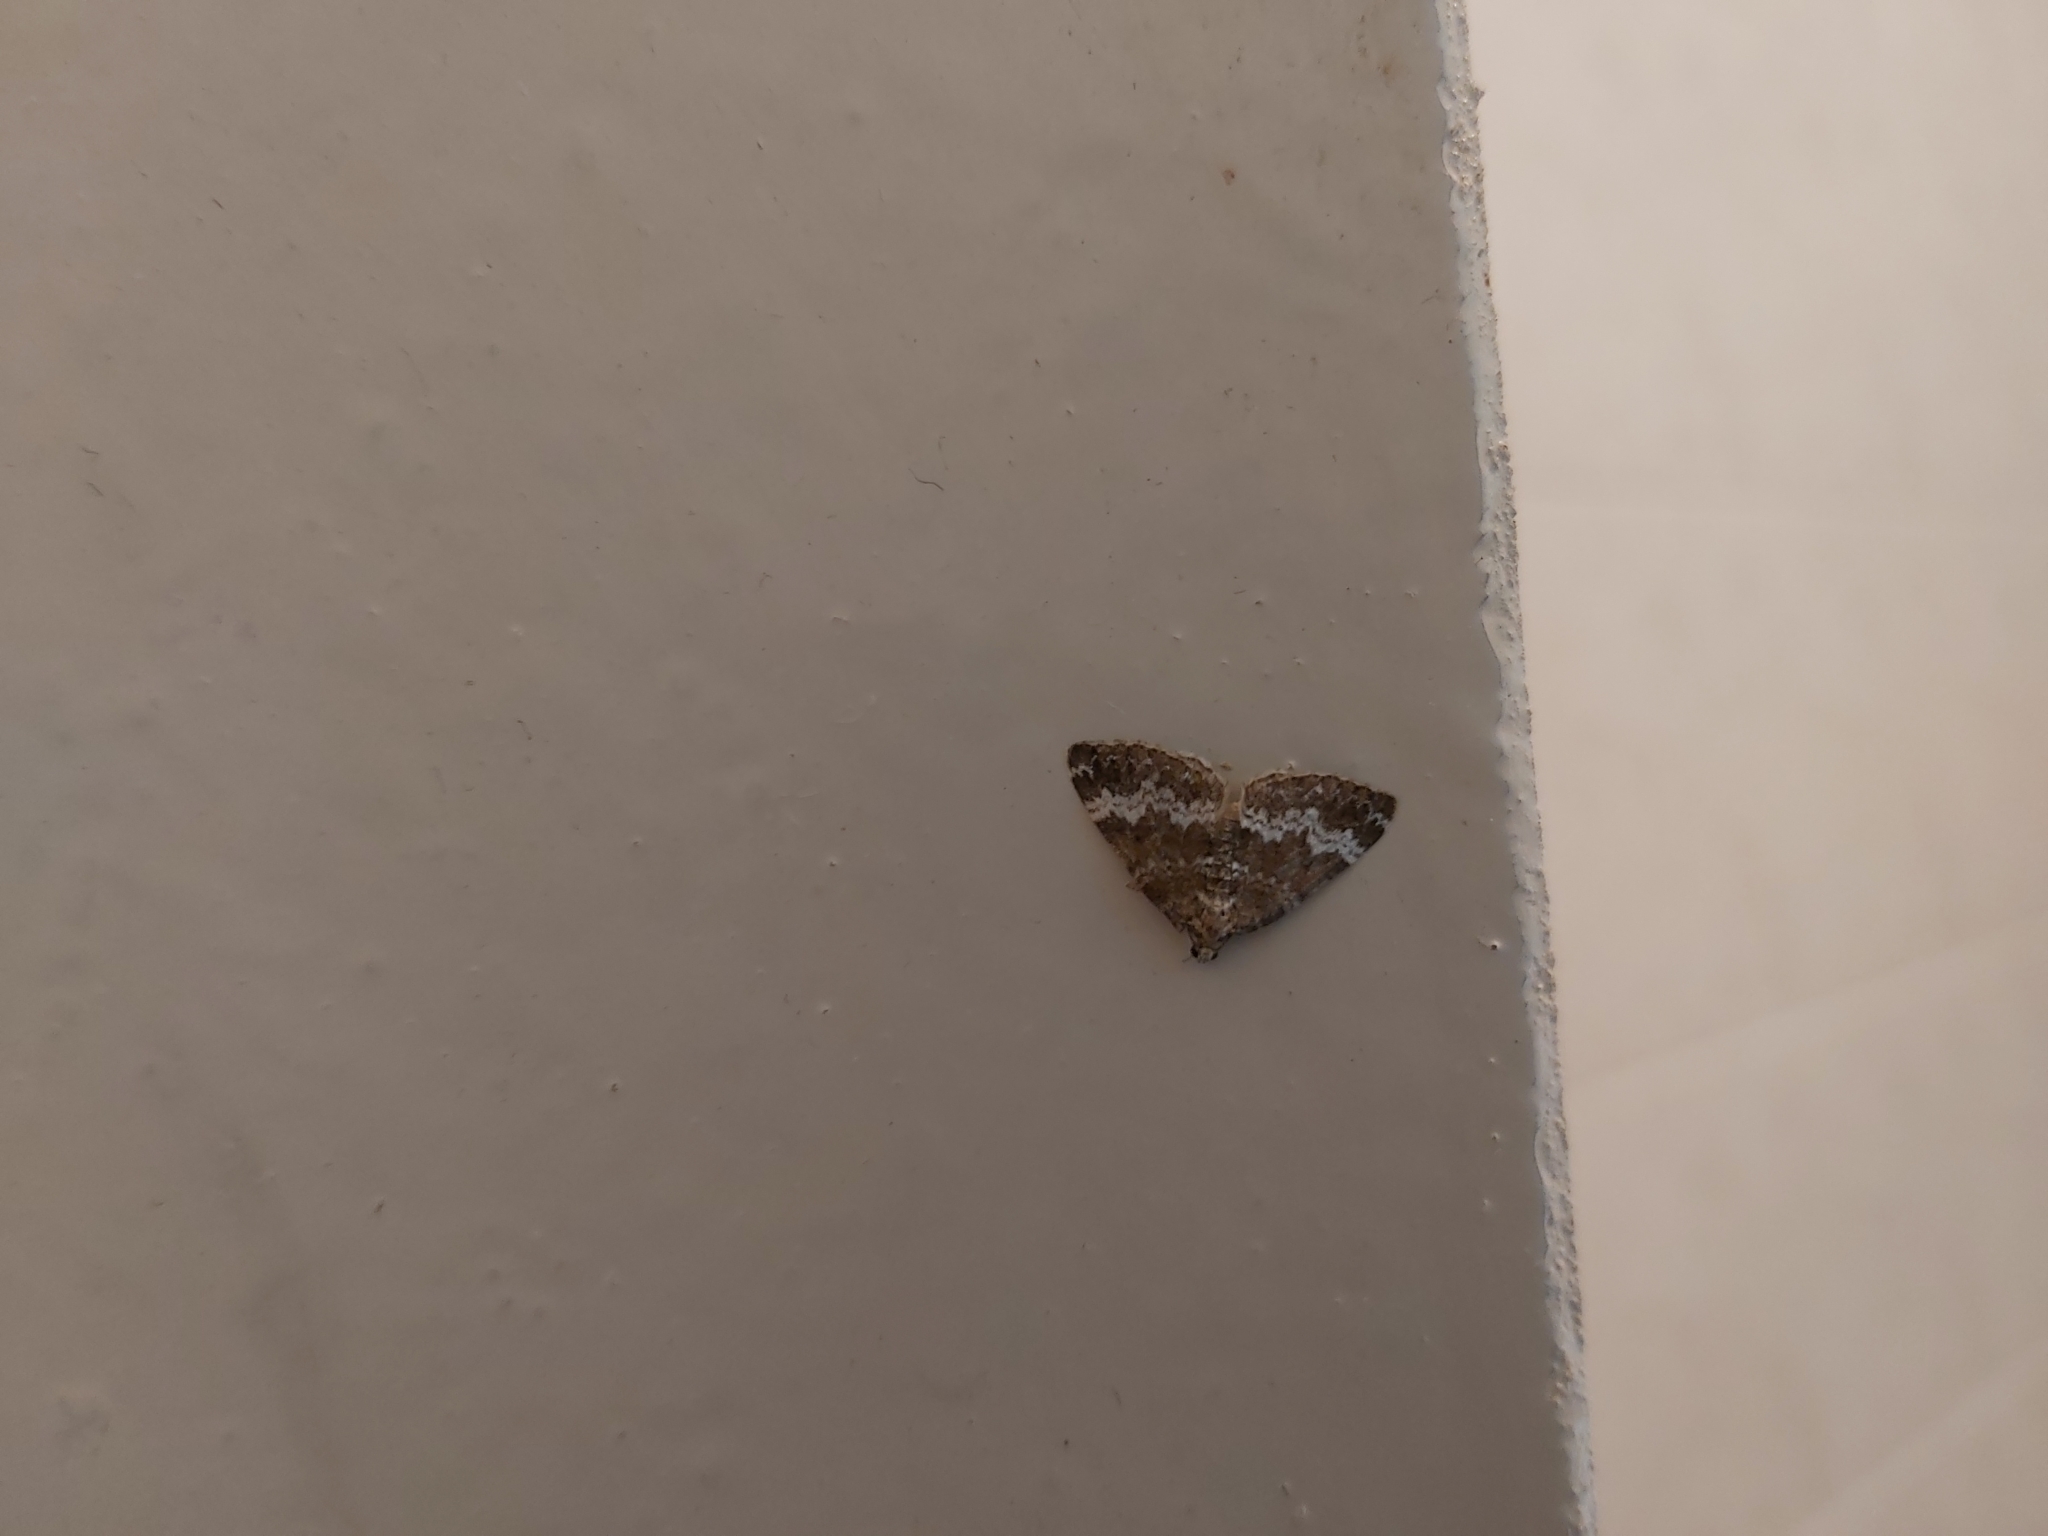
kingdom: Animalia
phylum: Arthropoda
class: Insecta
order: Lepidoptera
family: Geometridae
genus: Perizoma
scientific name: Perizoma alchemillata
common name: Small rivulet
